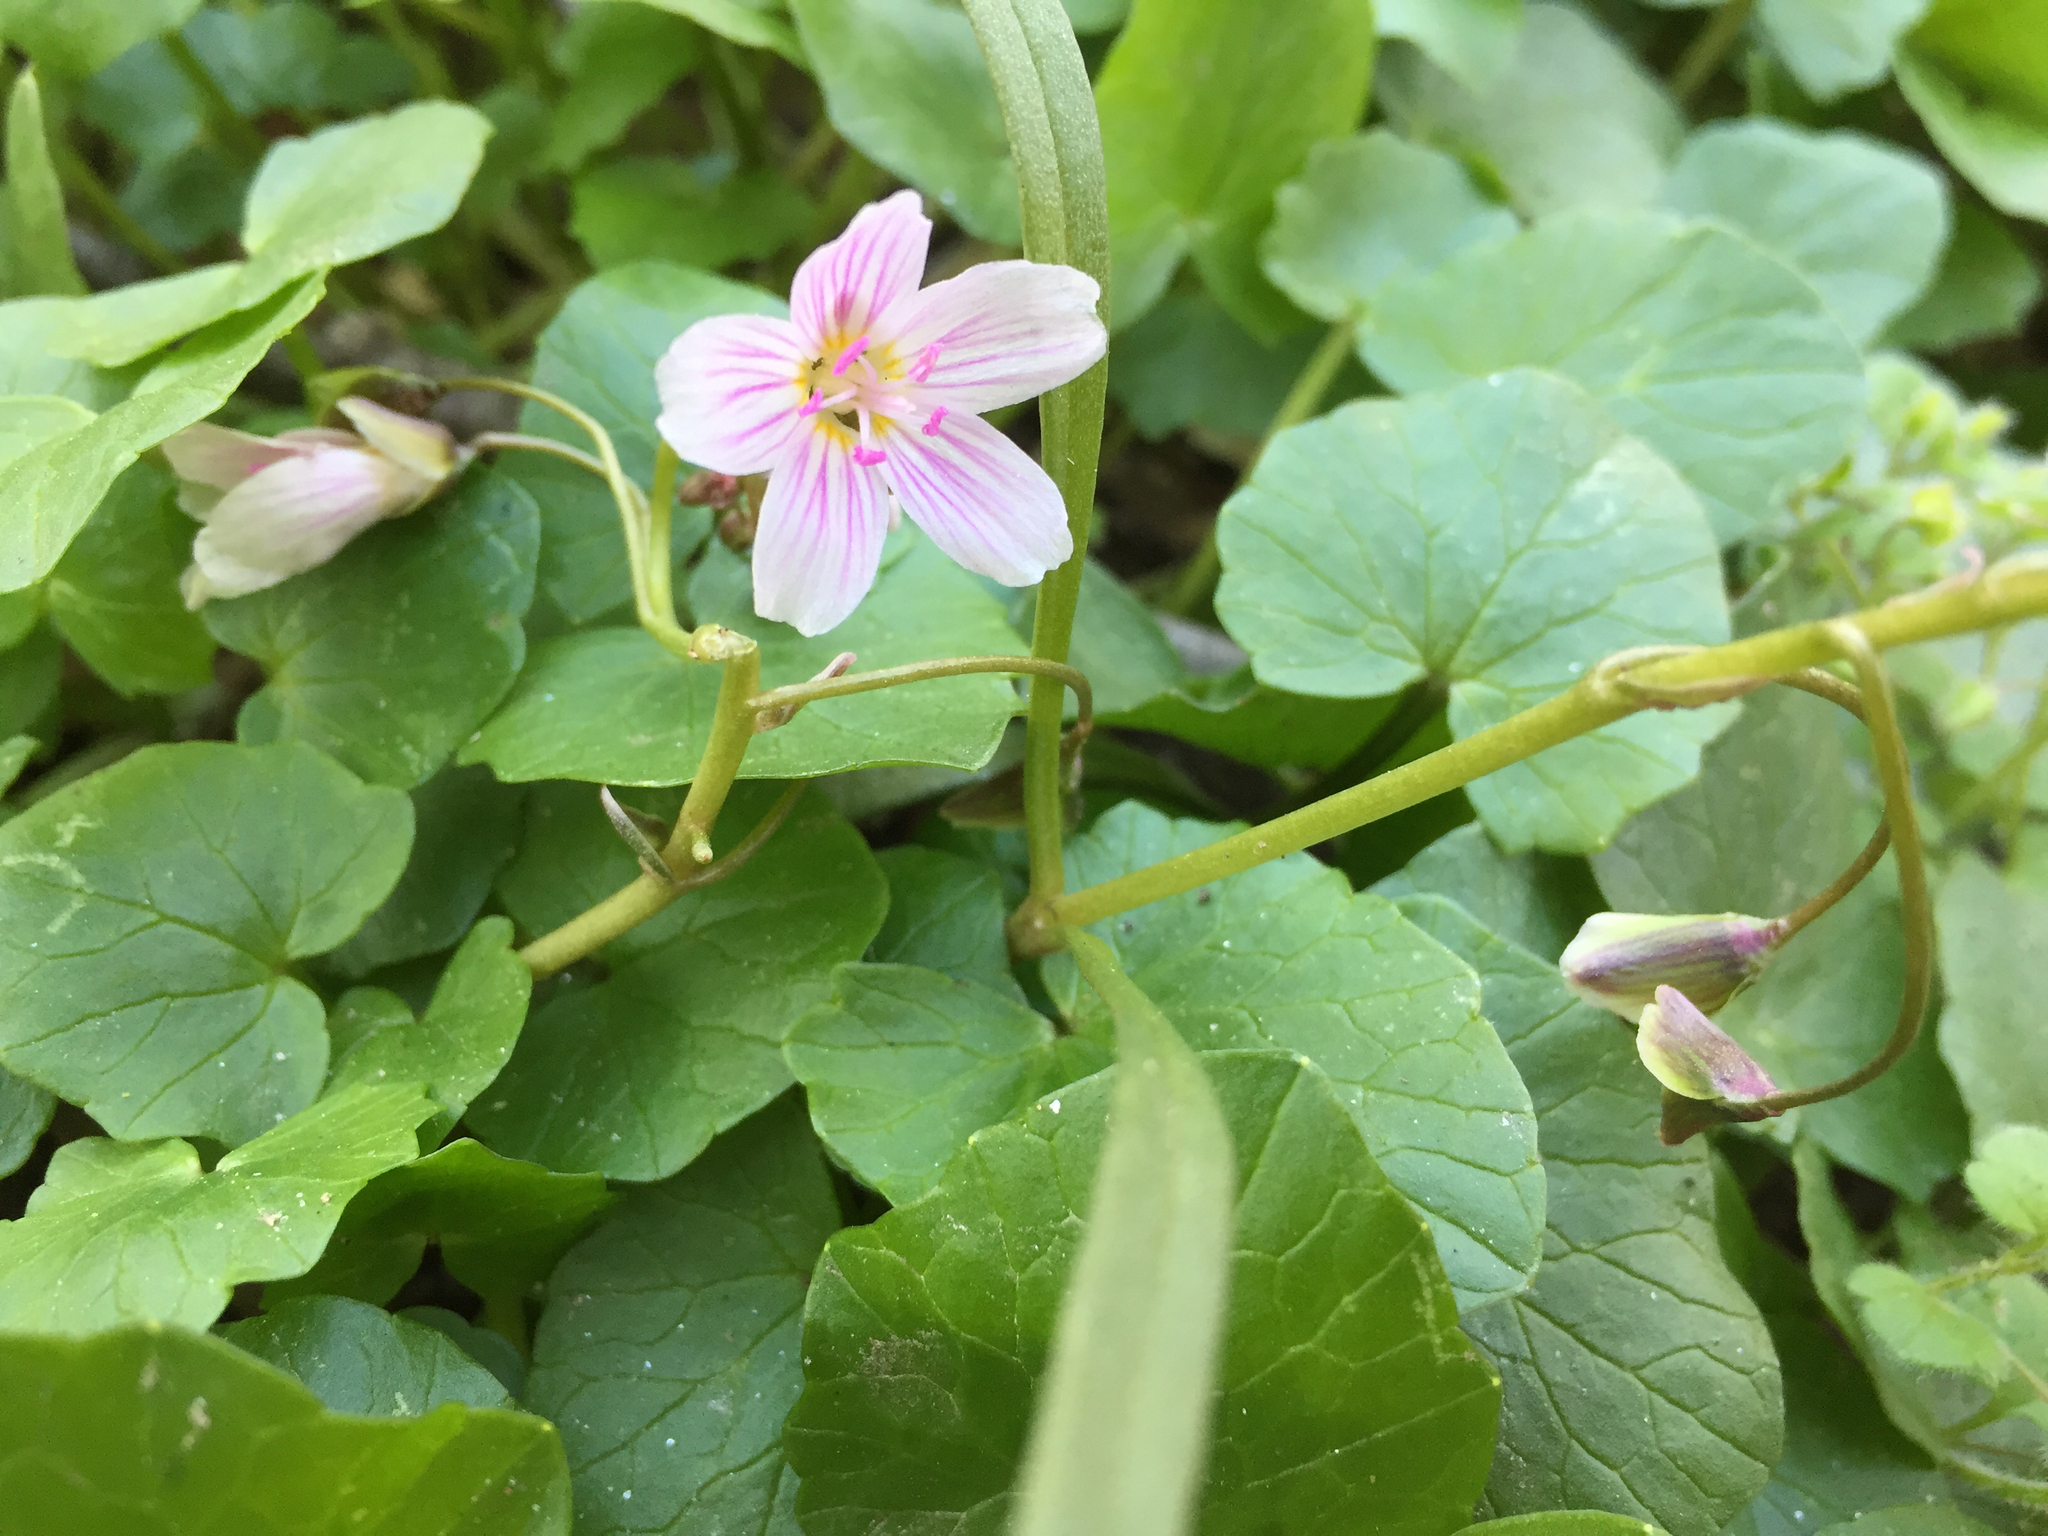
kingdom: Plantae
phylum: Tracheophyta
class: Magnoliopsida
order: Caryophyllales
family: Montiaceae
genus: Claytonia
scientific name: Claytonia virginica
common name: Virginia springbeauty
